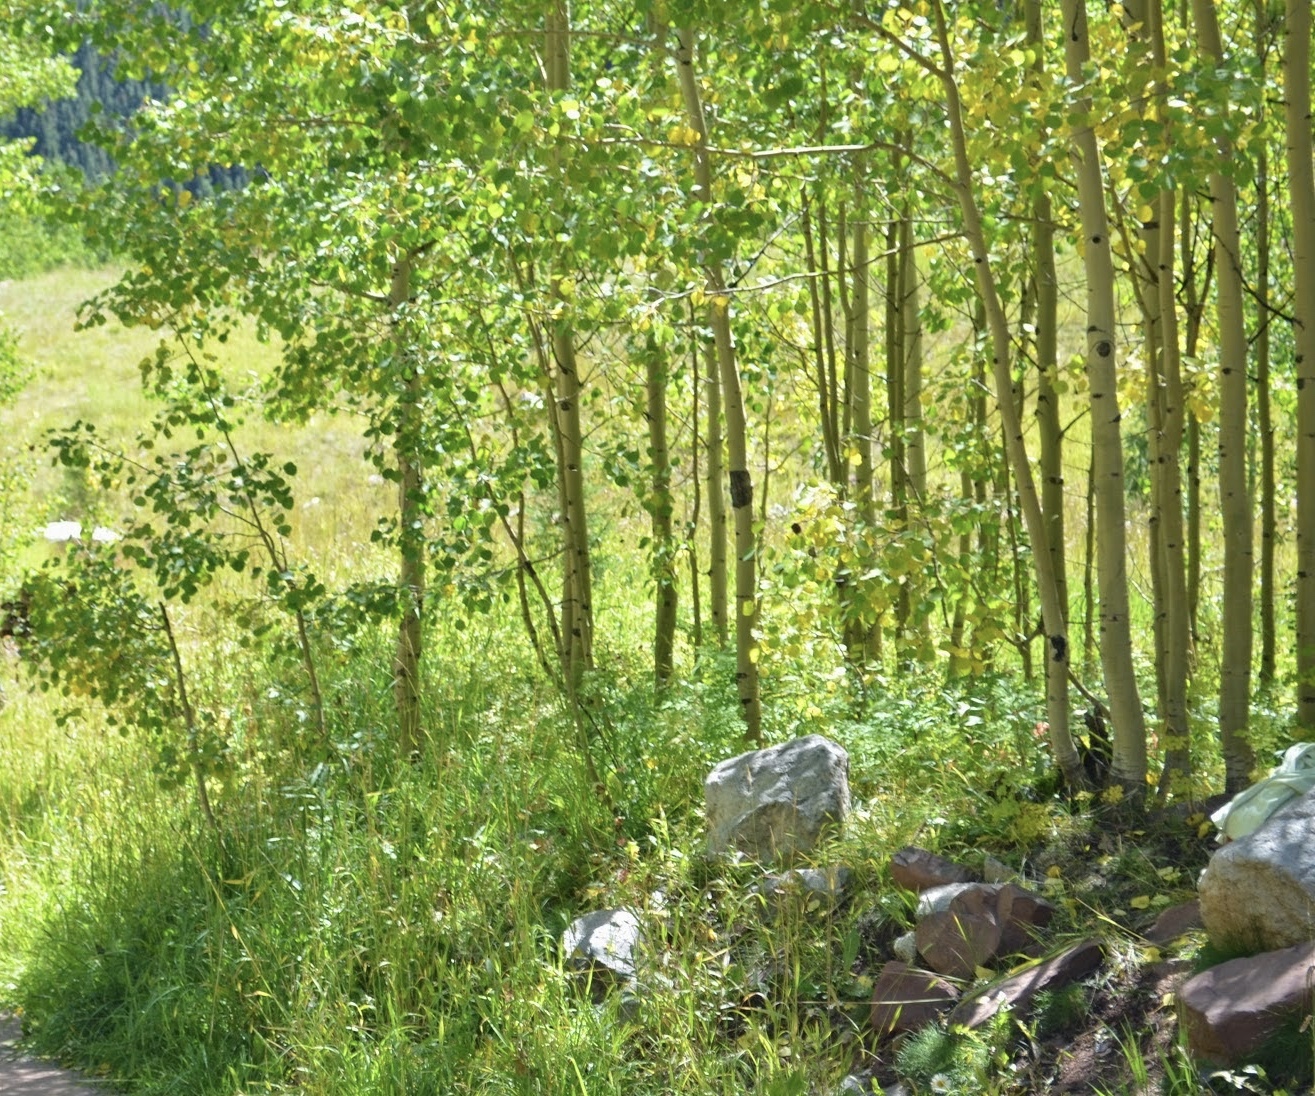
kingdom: Plantae
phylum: Tracheophyta
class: Magnoliopsida
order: Malpighiales
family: Salicaceae
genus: Populus
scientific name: Populus tremuloides
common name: Quaking aspen
